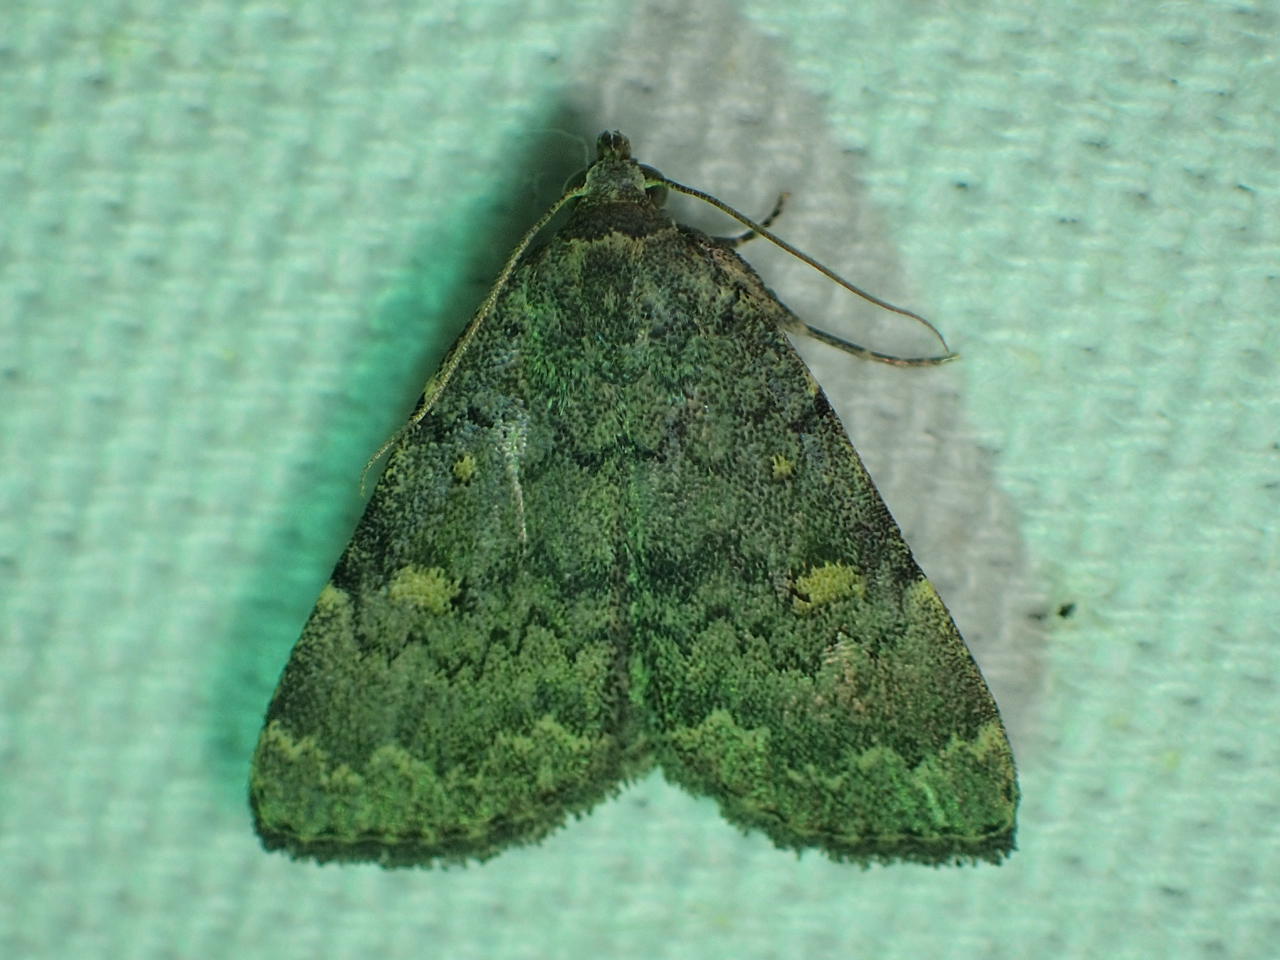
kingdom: Animalia
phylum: Arthropoda
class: Insecta
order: Lepidoptera
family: Erebidae
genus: Idia
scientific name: Idia aemula
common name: Common idia moth
